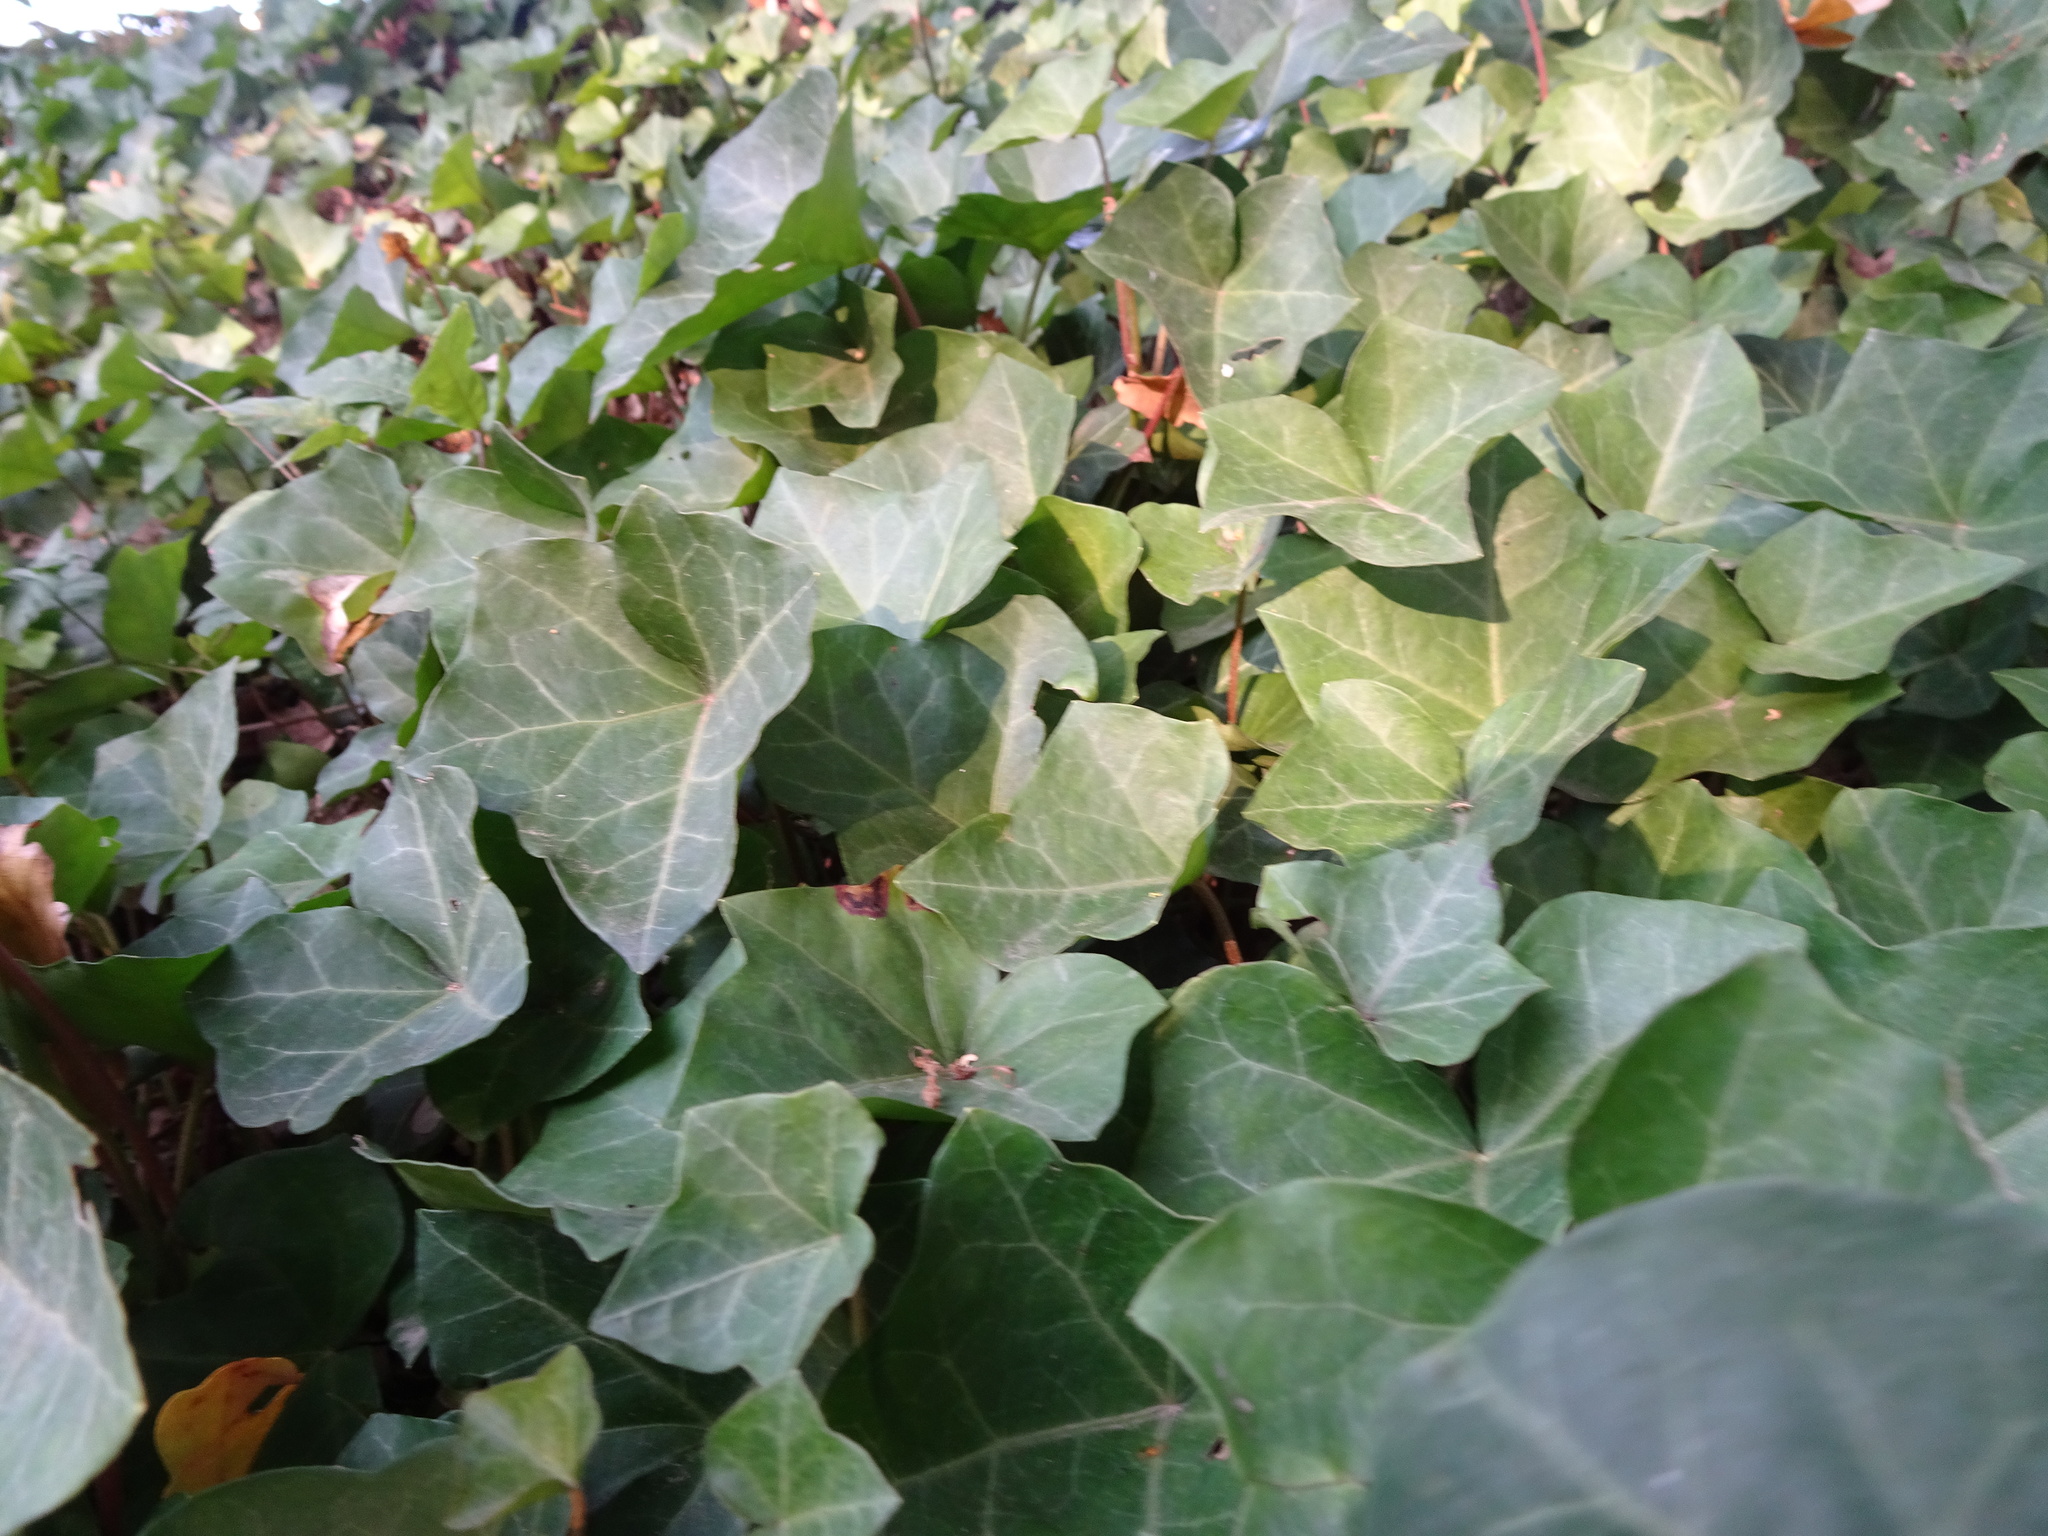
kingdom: Plantae
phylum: Tracheophyta
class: Magnoliopsida
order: Apiales
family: Araliaceae
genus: Hedera
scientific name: Hedera helix
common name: Ivy
